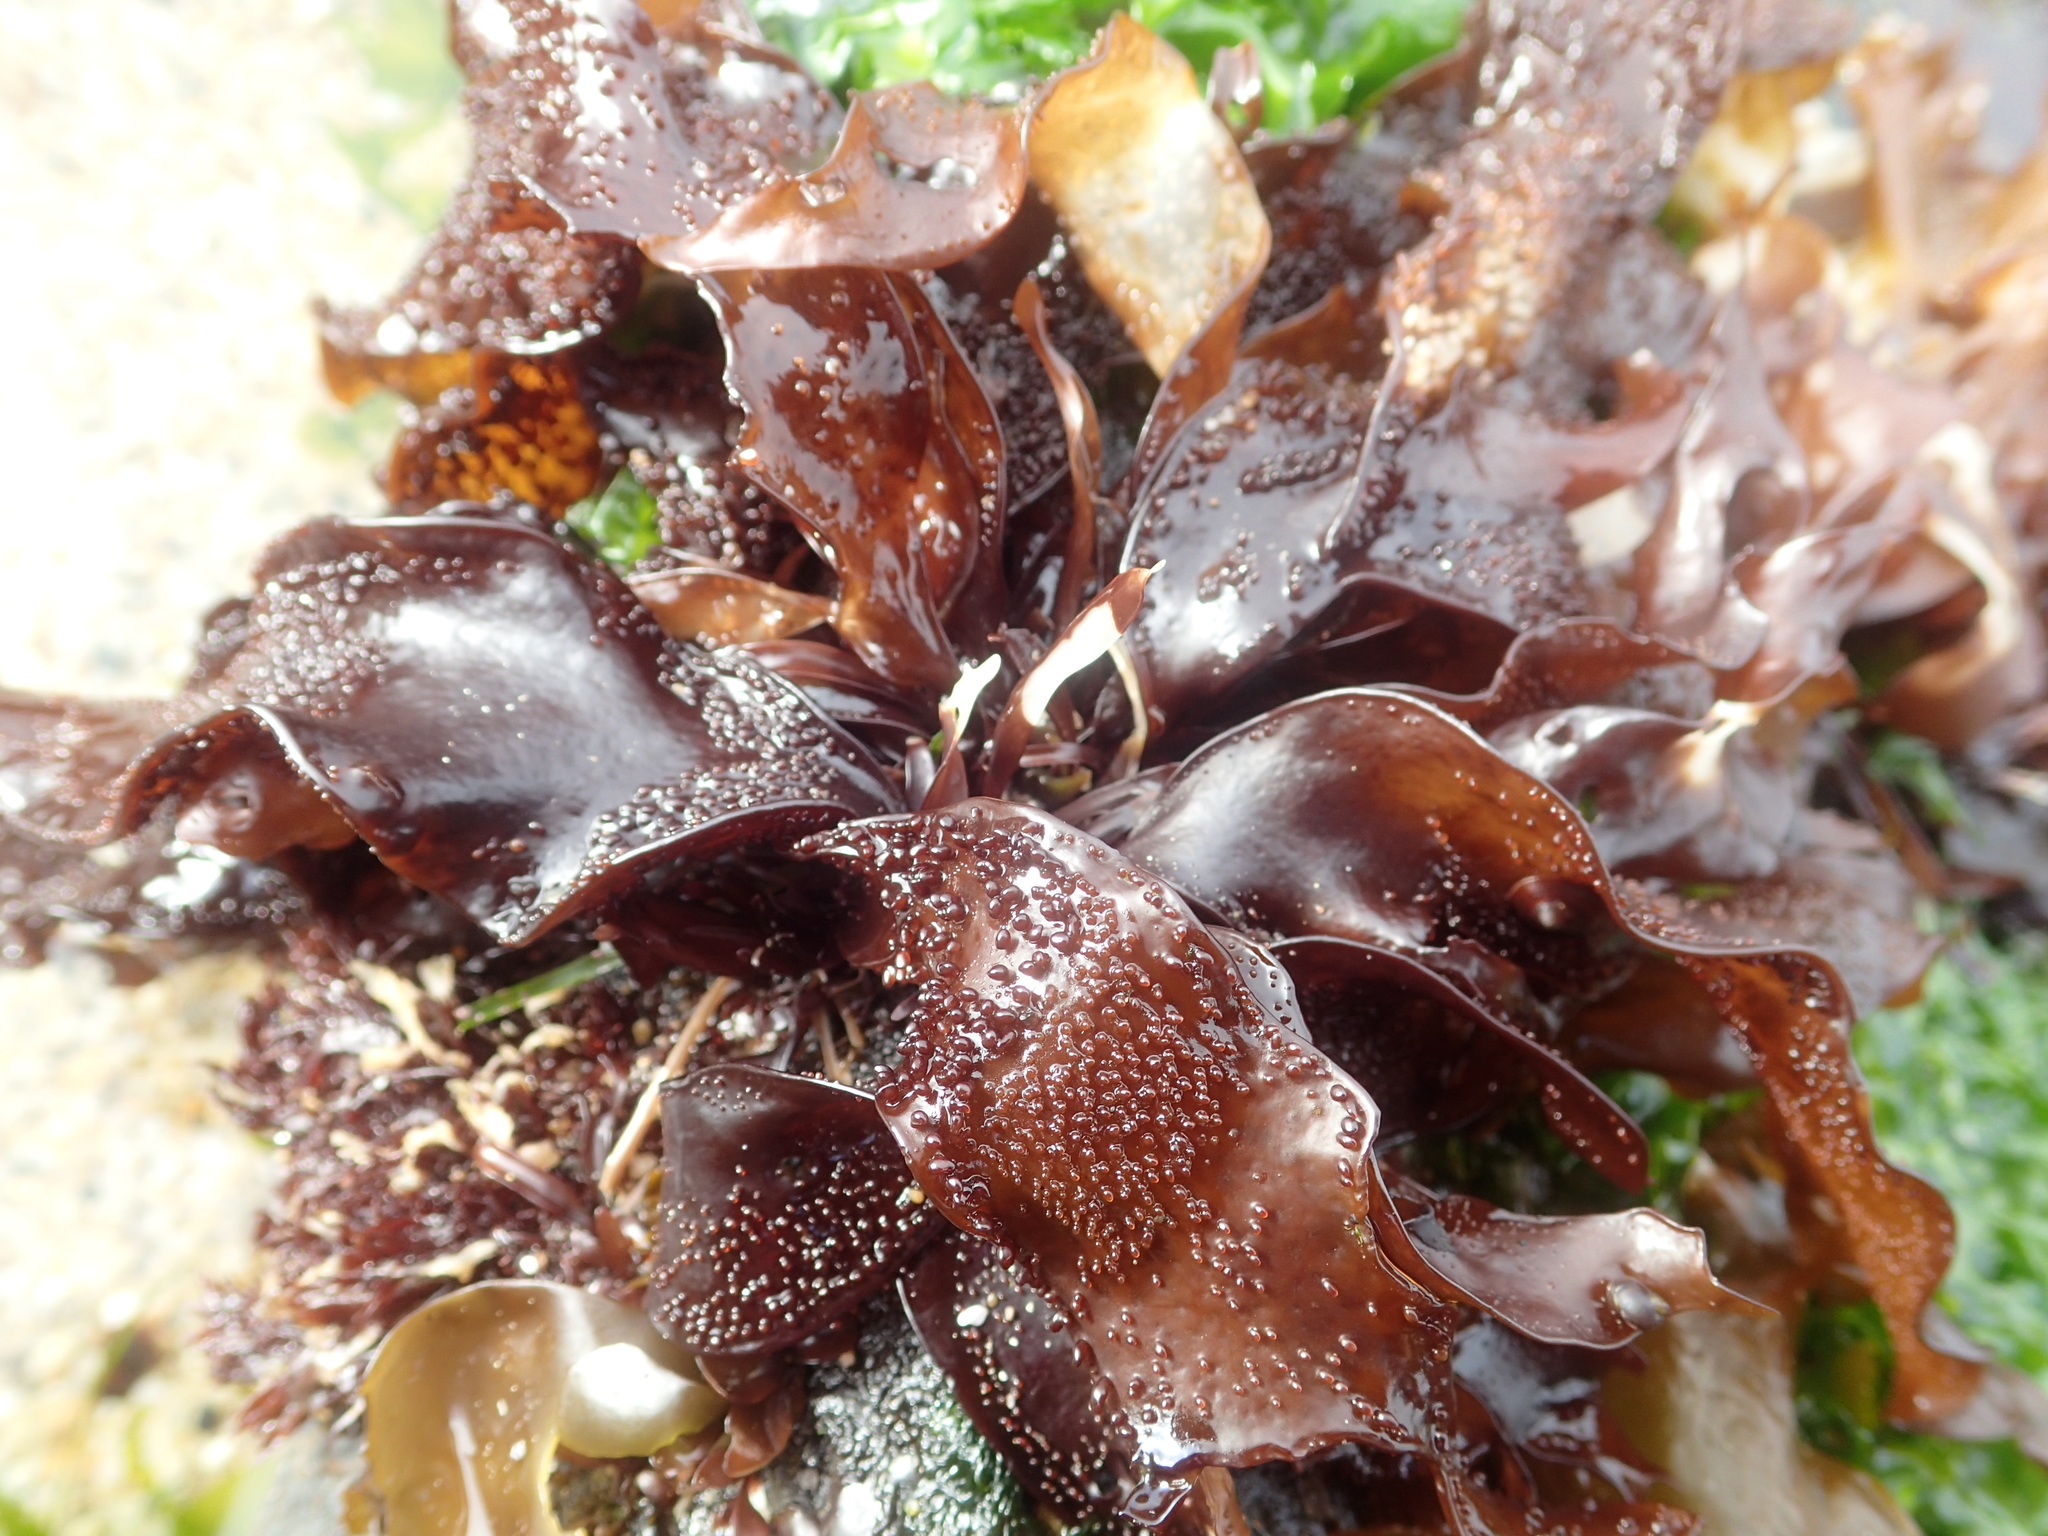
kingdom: Plantae
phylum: Rhodophyta
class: Florideophyceae
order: Gigartinales
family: Phyllophoraceae
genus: Mastocarpus
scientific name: Mastocarpus papillatus
